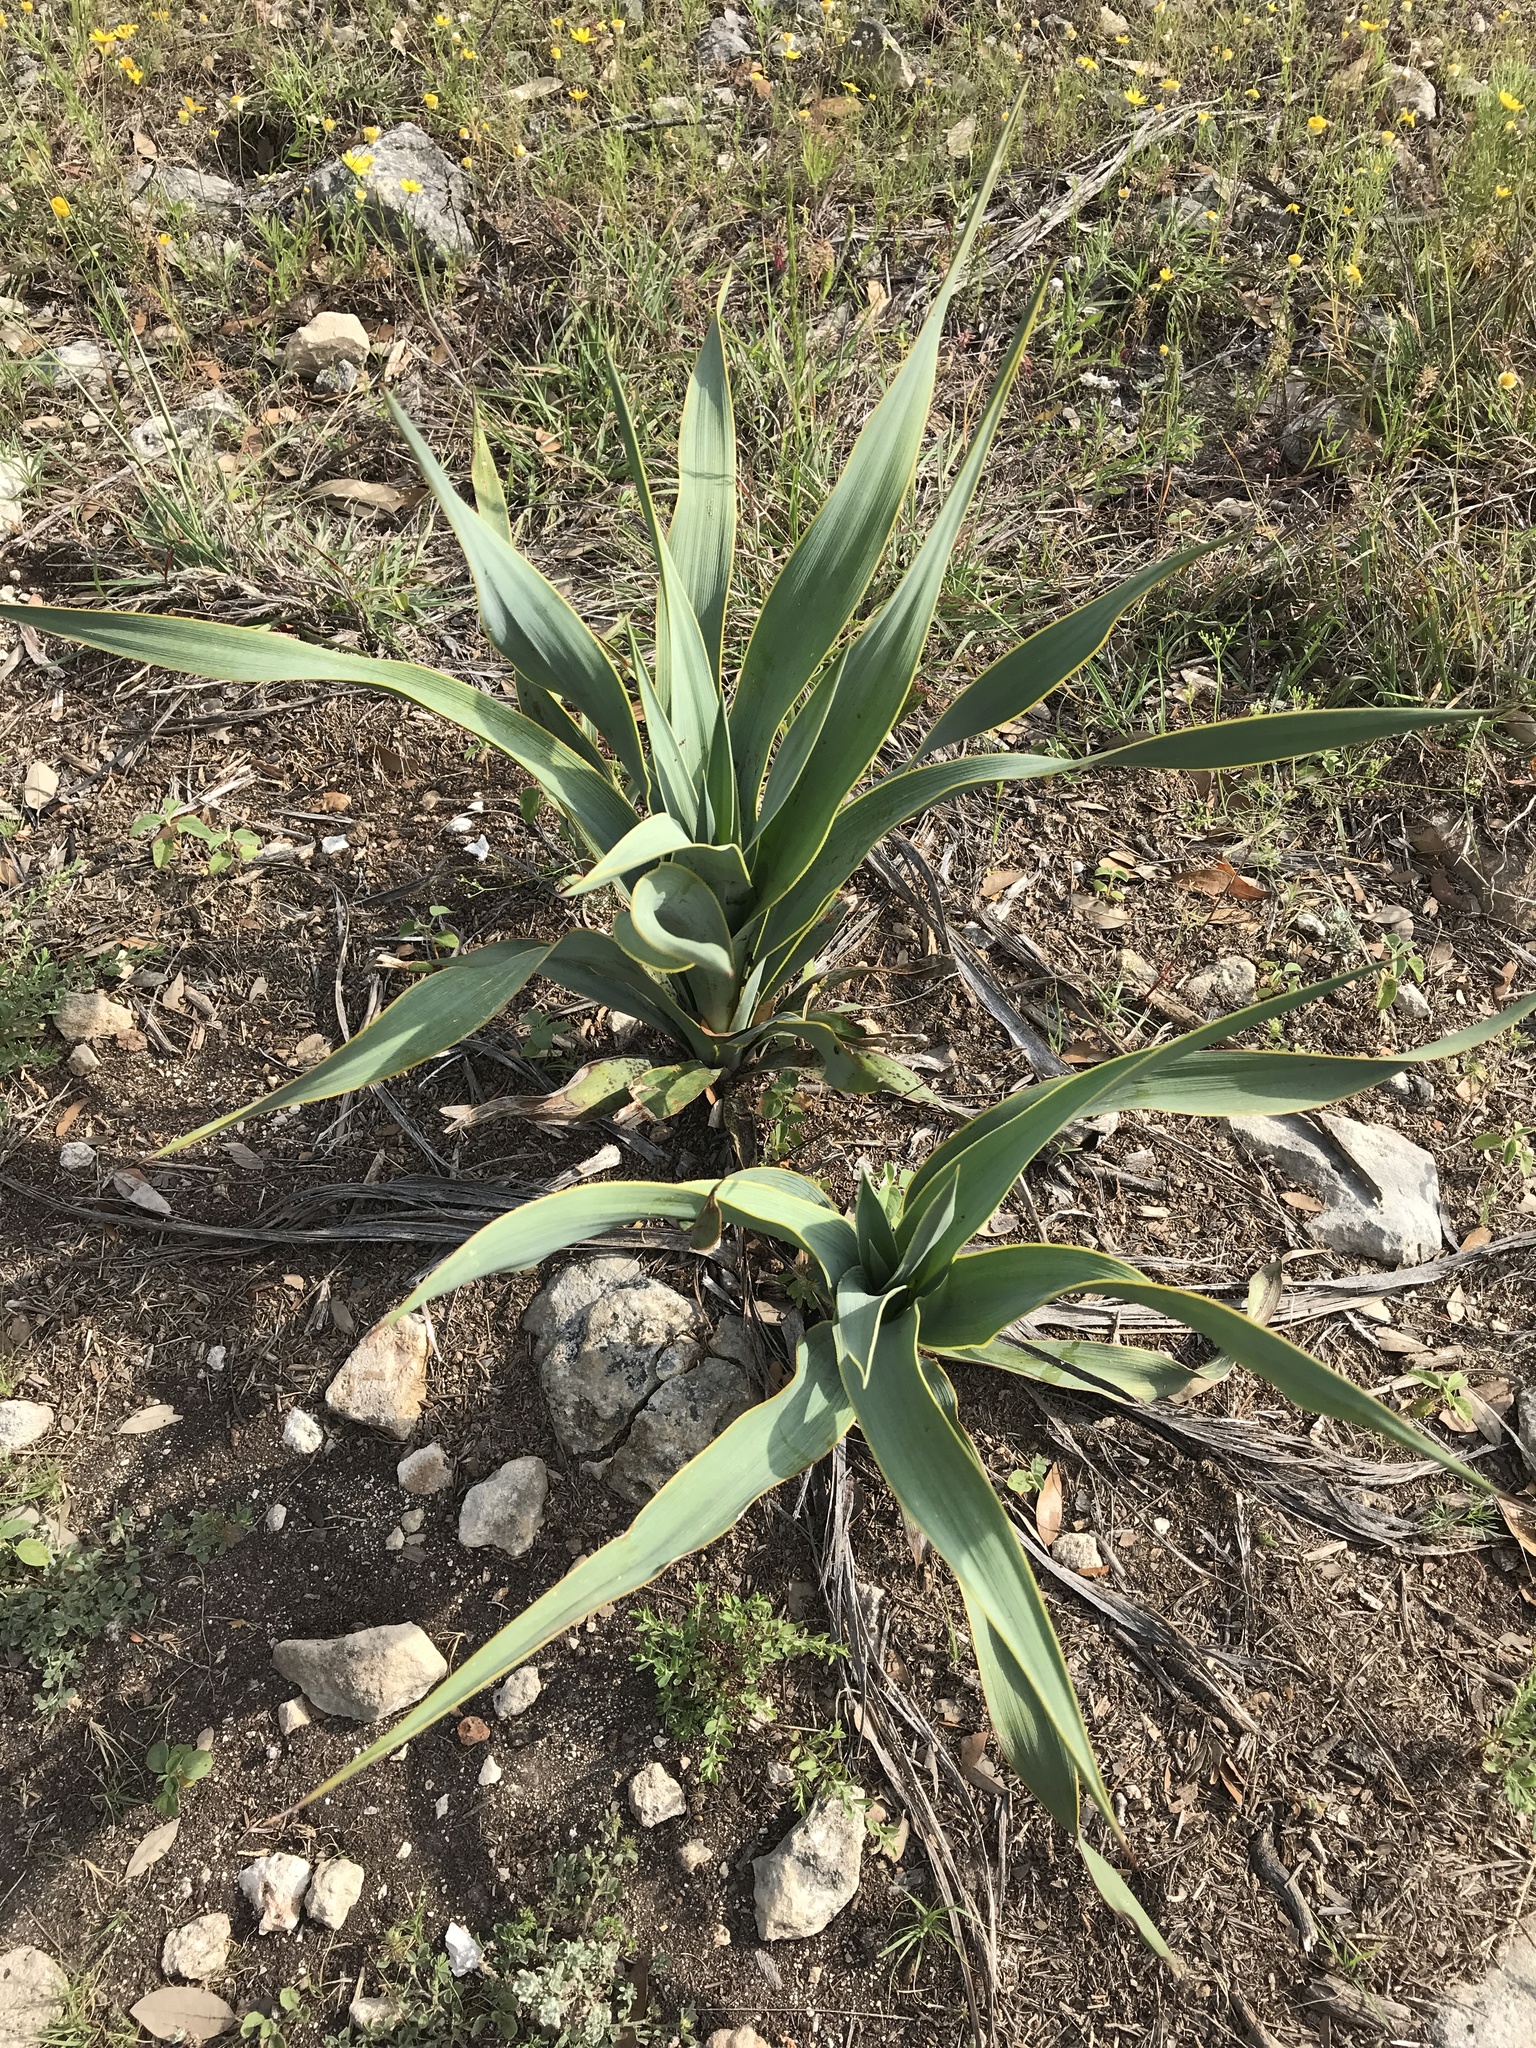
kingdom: Plantae
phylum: Tracheophyta
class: Liliopsida
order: Asparagales
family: Asparagaceae
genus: Yucca
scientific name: Yucca rupicola
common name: Twisted-leaf spanish-dagger
